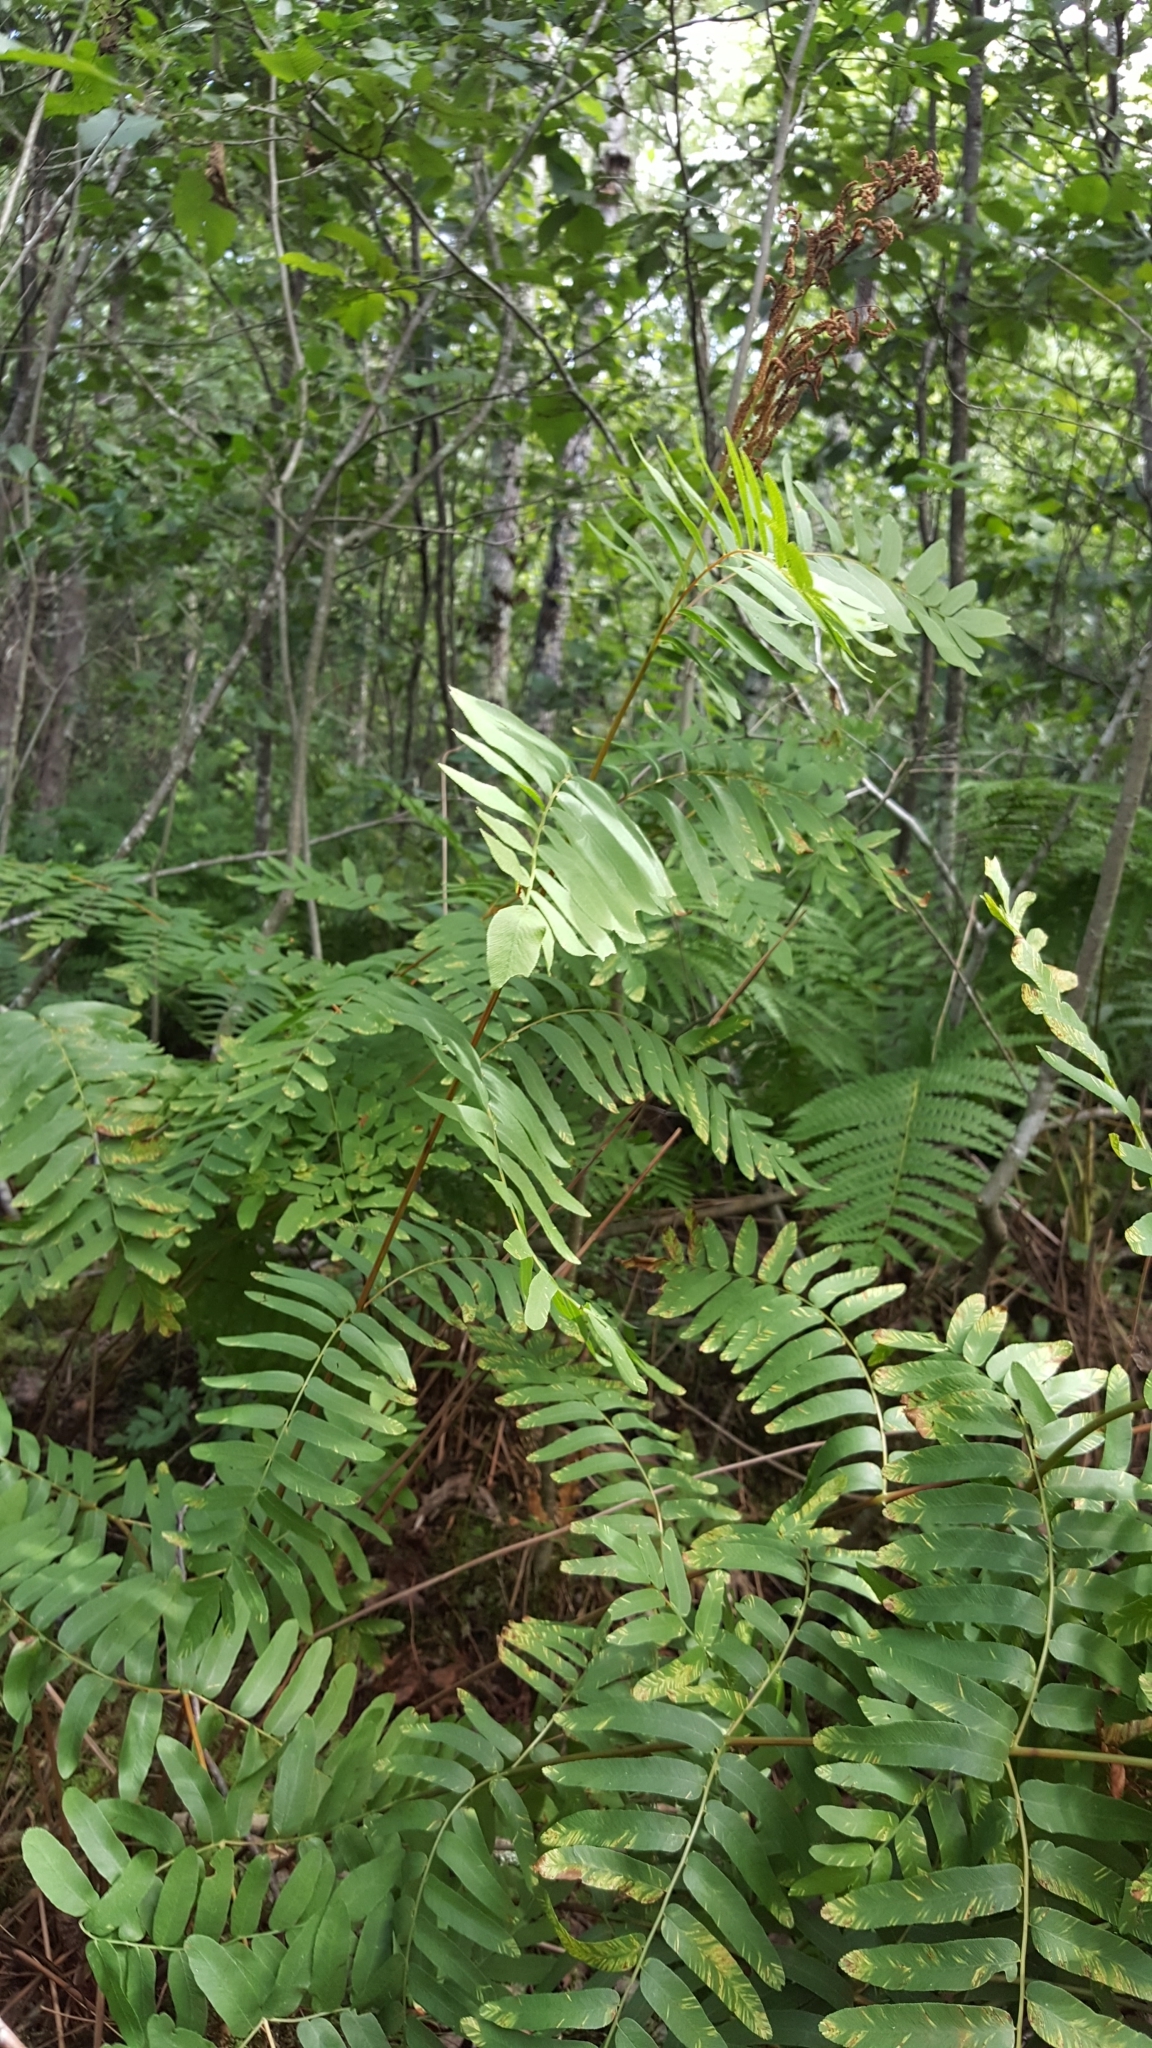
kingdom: Plantae
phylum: Tracheophyta
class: Polypodiopsida
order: Osmundales
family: Osmundaceae
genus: Osmunda
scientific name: Osmunda spectabilis
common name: American royal fern
